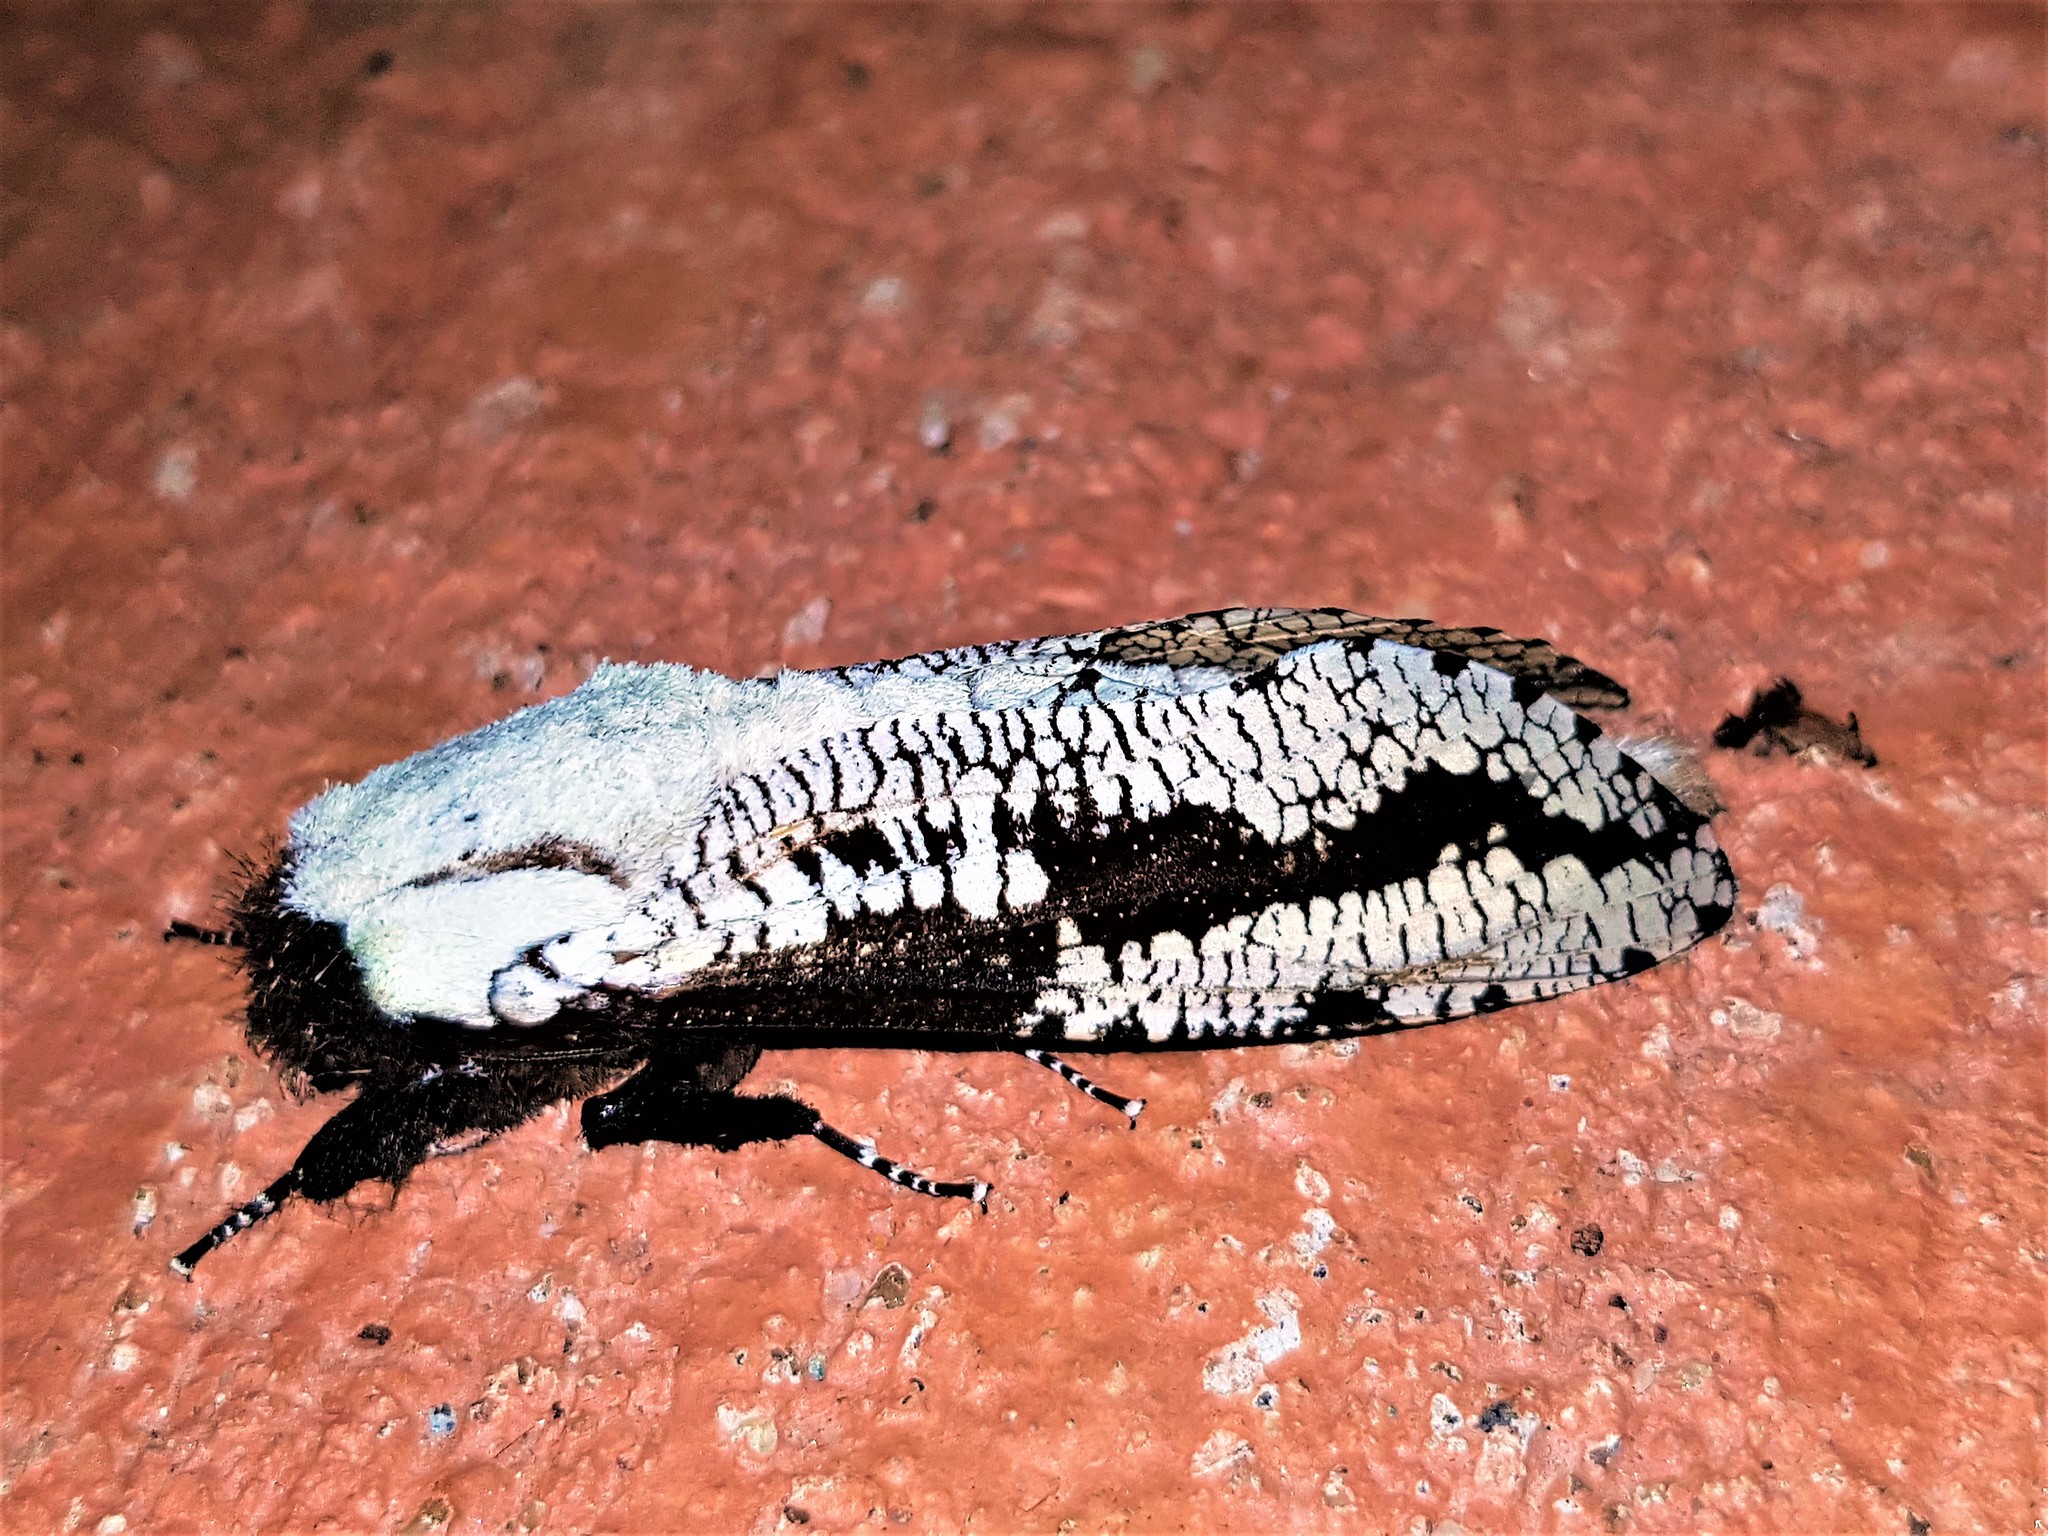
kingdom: Animalia
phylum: Arthropoda
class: Insecta
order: Lepidoptera
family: Cossidae
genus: Morpheis
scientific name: Morpheis pyracmon
